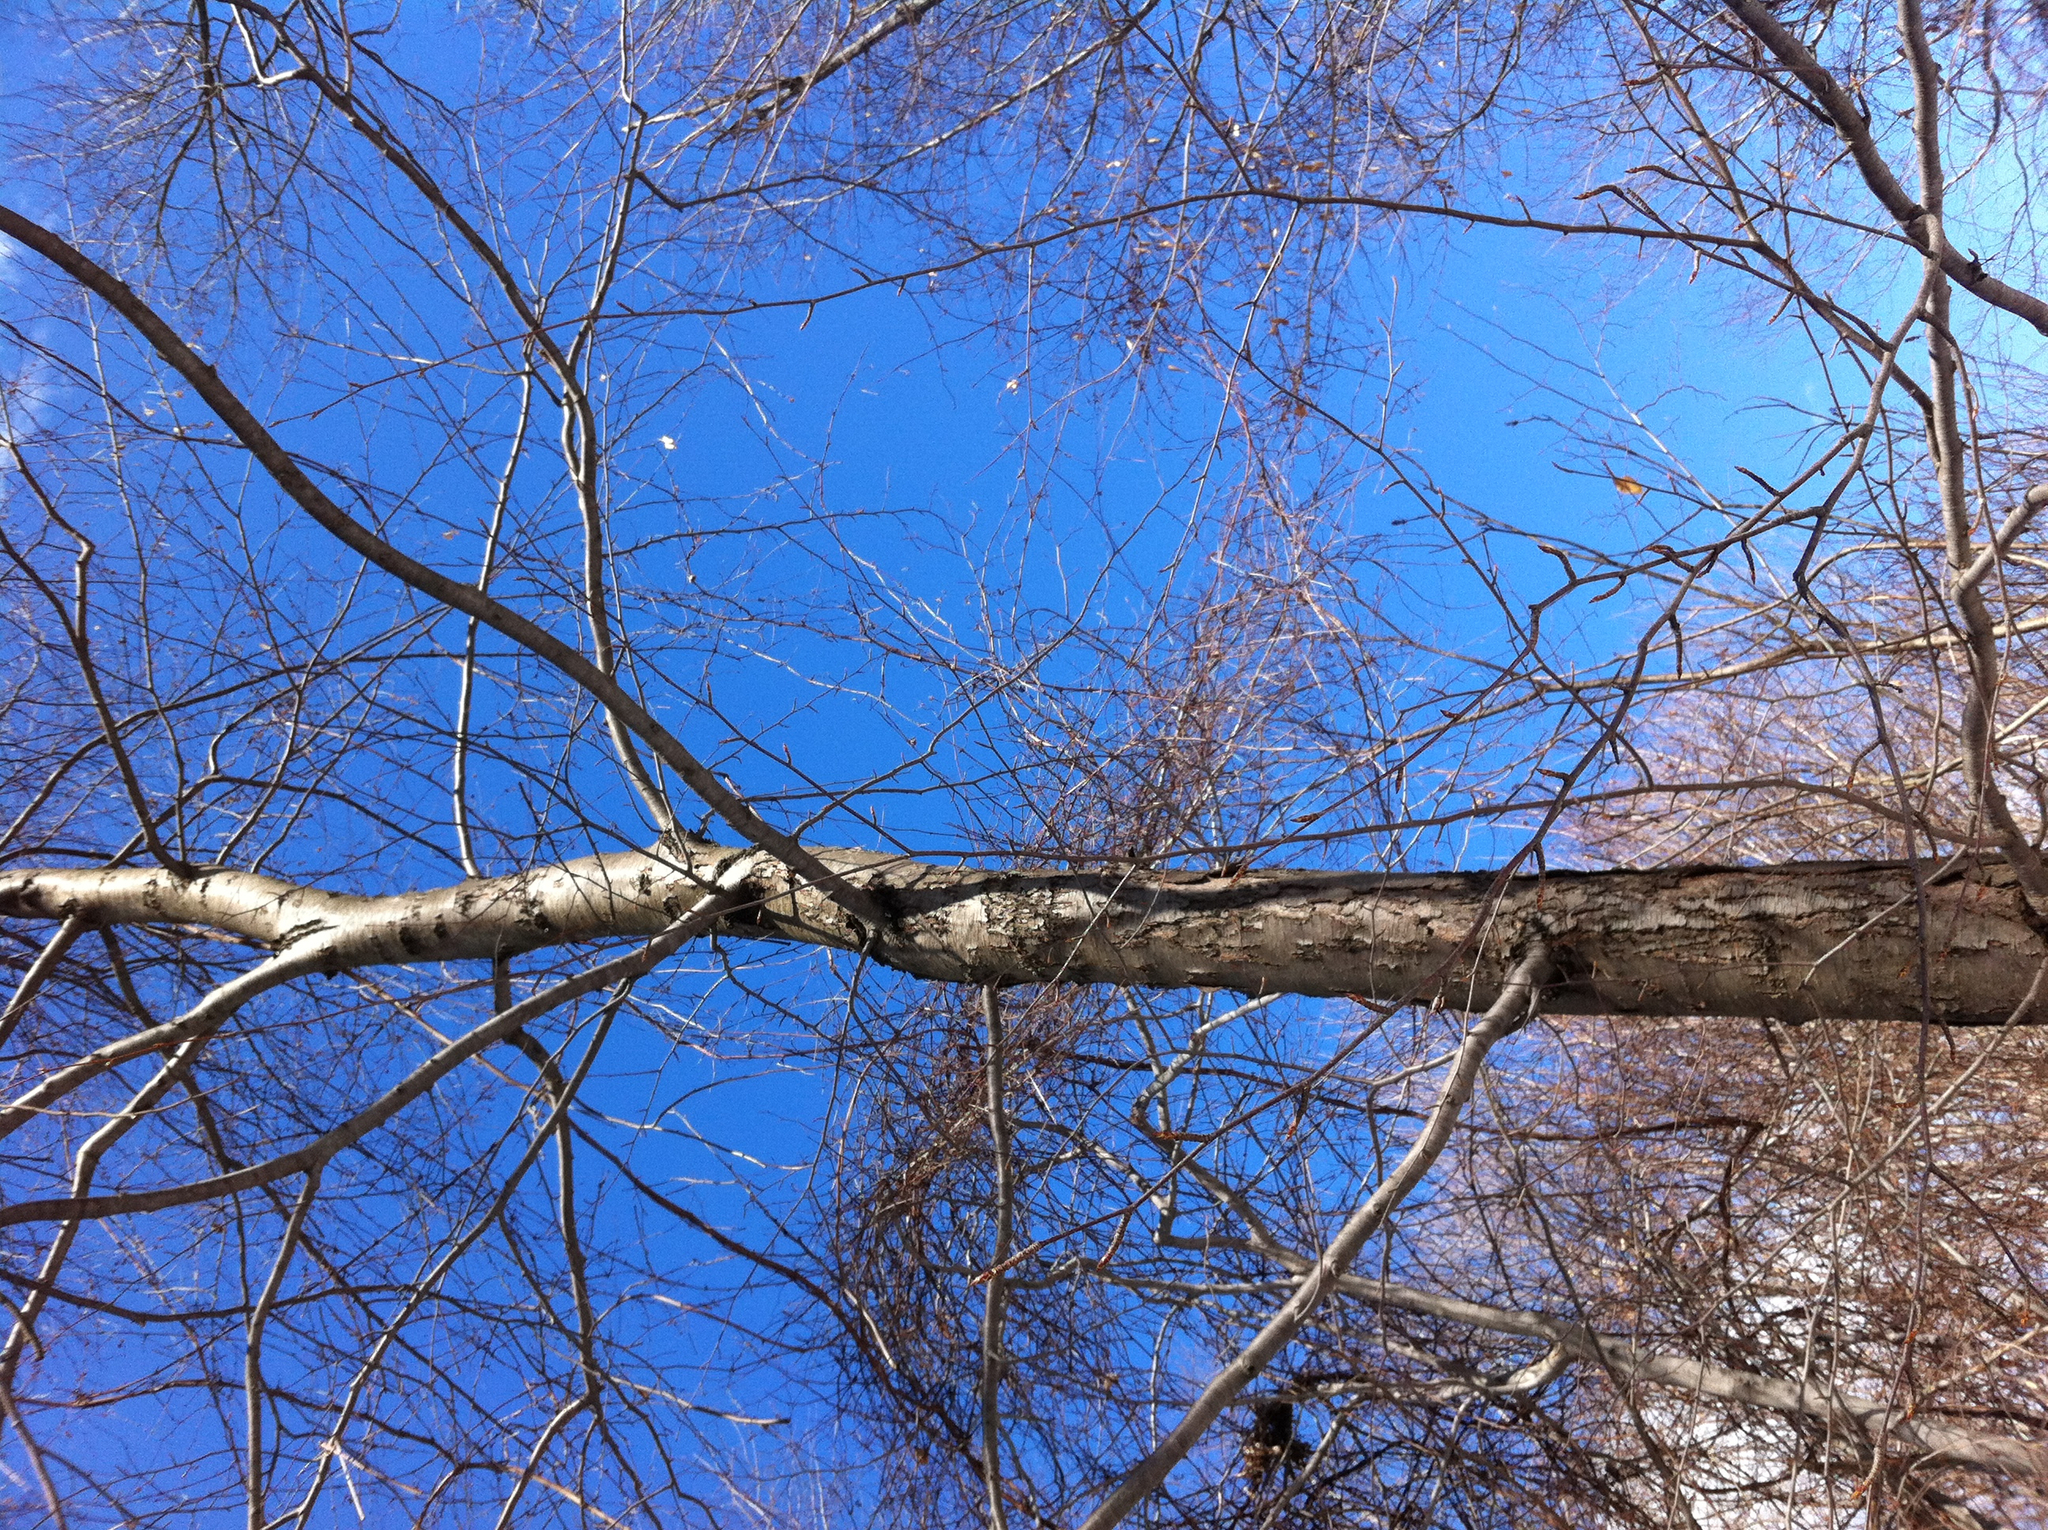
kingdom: Plantae
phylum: Tracheophyta
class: Magnoliopsida
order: Fagales
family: Betulaceae
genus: Betula
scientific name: Betula lenta
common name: Black birch
